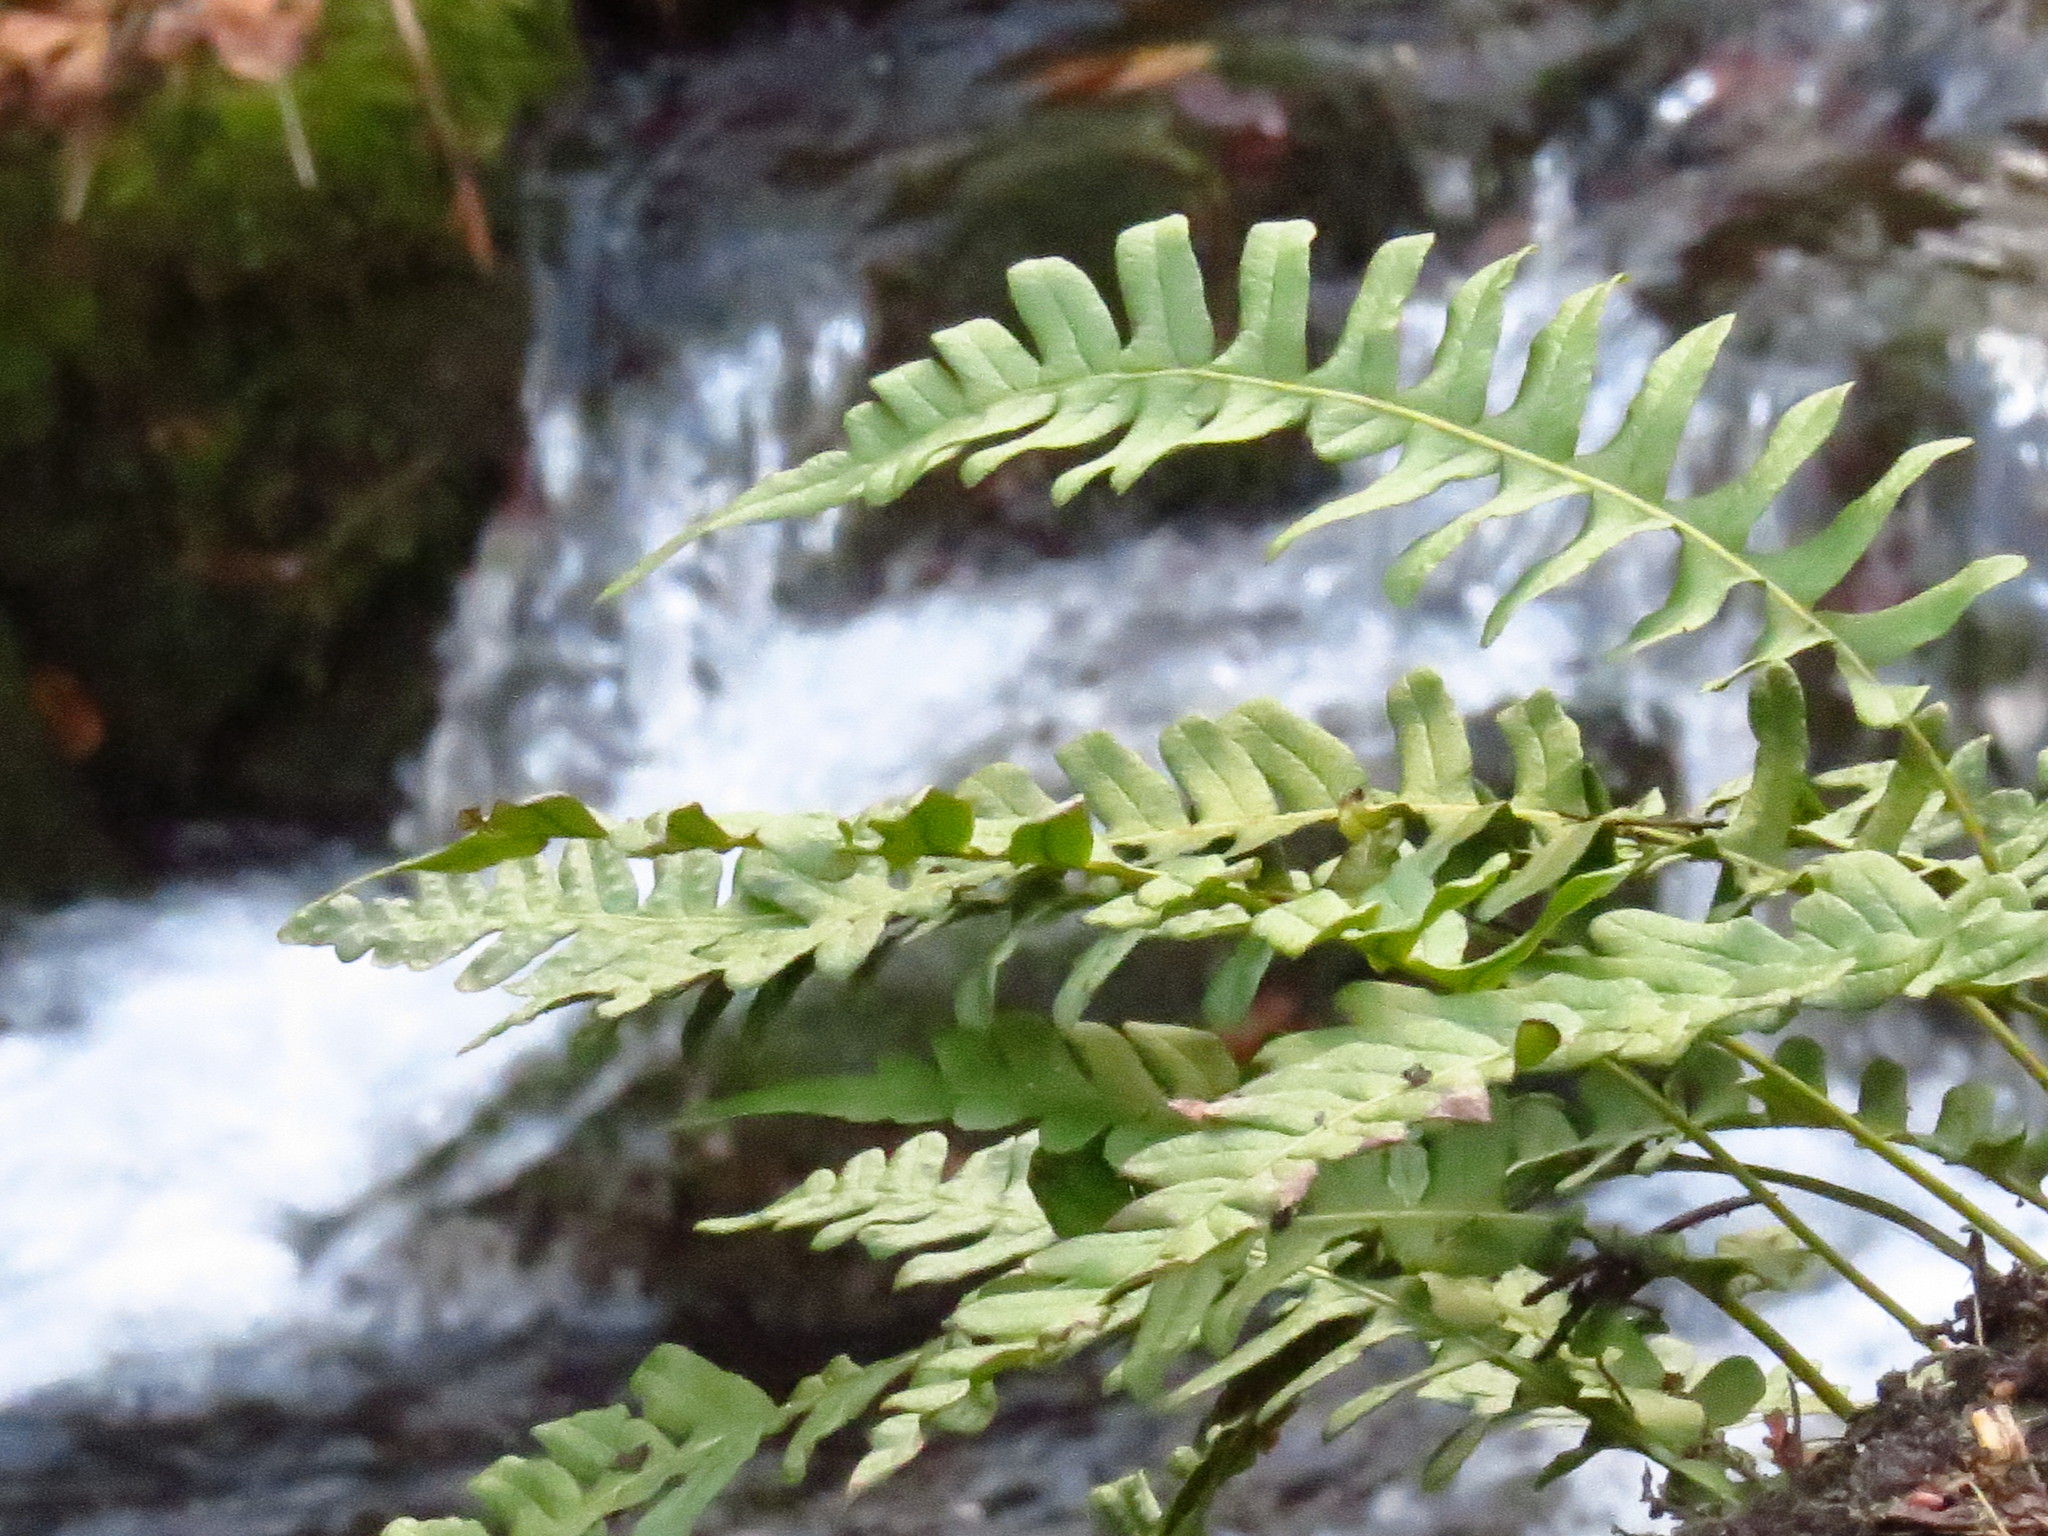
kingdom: Plantae
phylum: Tracheophyta
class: Polypodiopsida
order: Polypodiales
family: Polypodiaceae
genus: Polypodium
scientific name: Polypodium vulgare
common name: Common polypody
